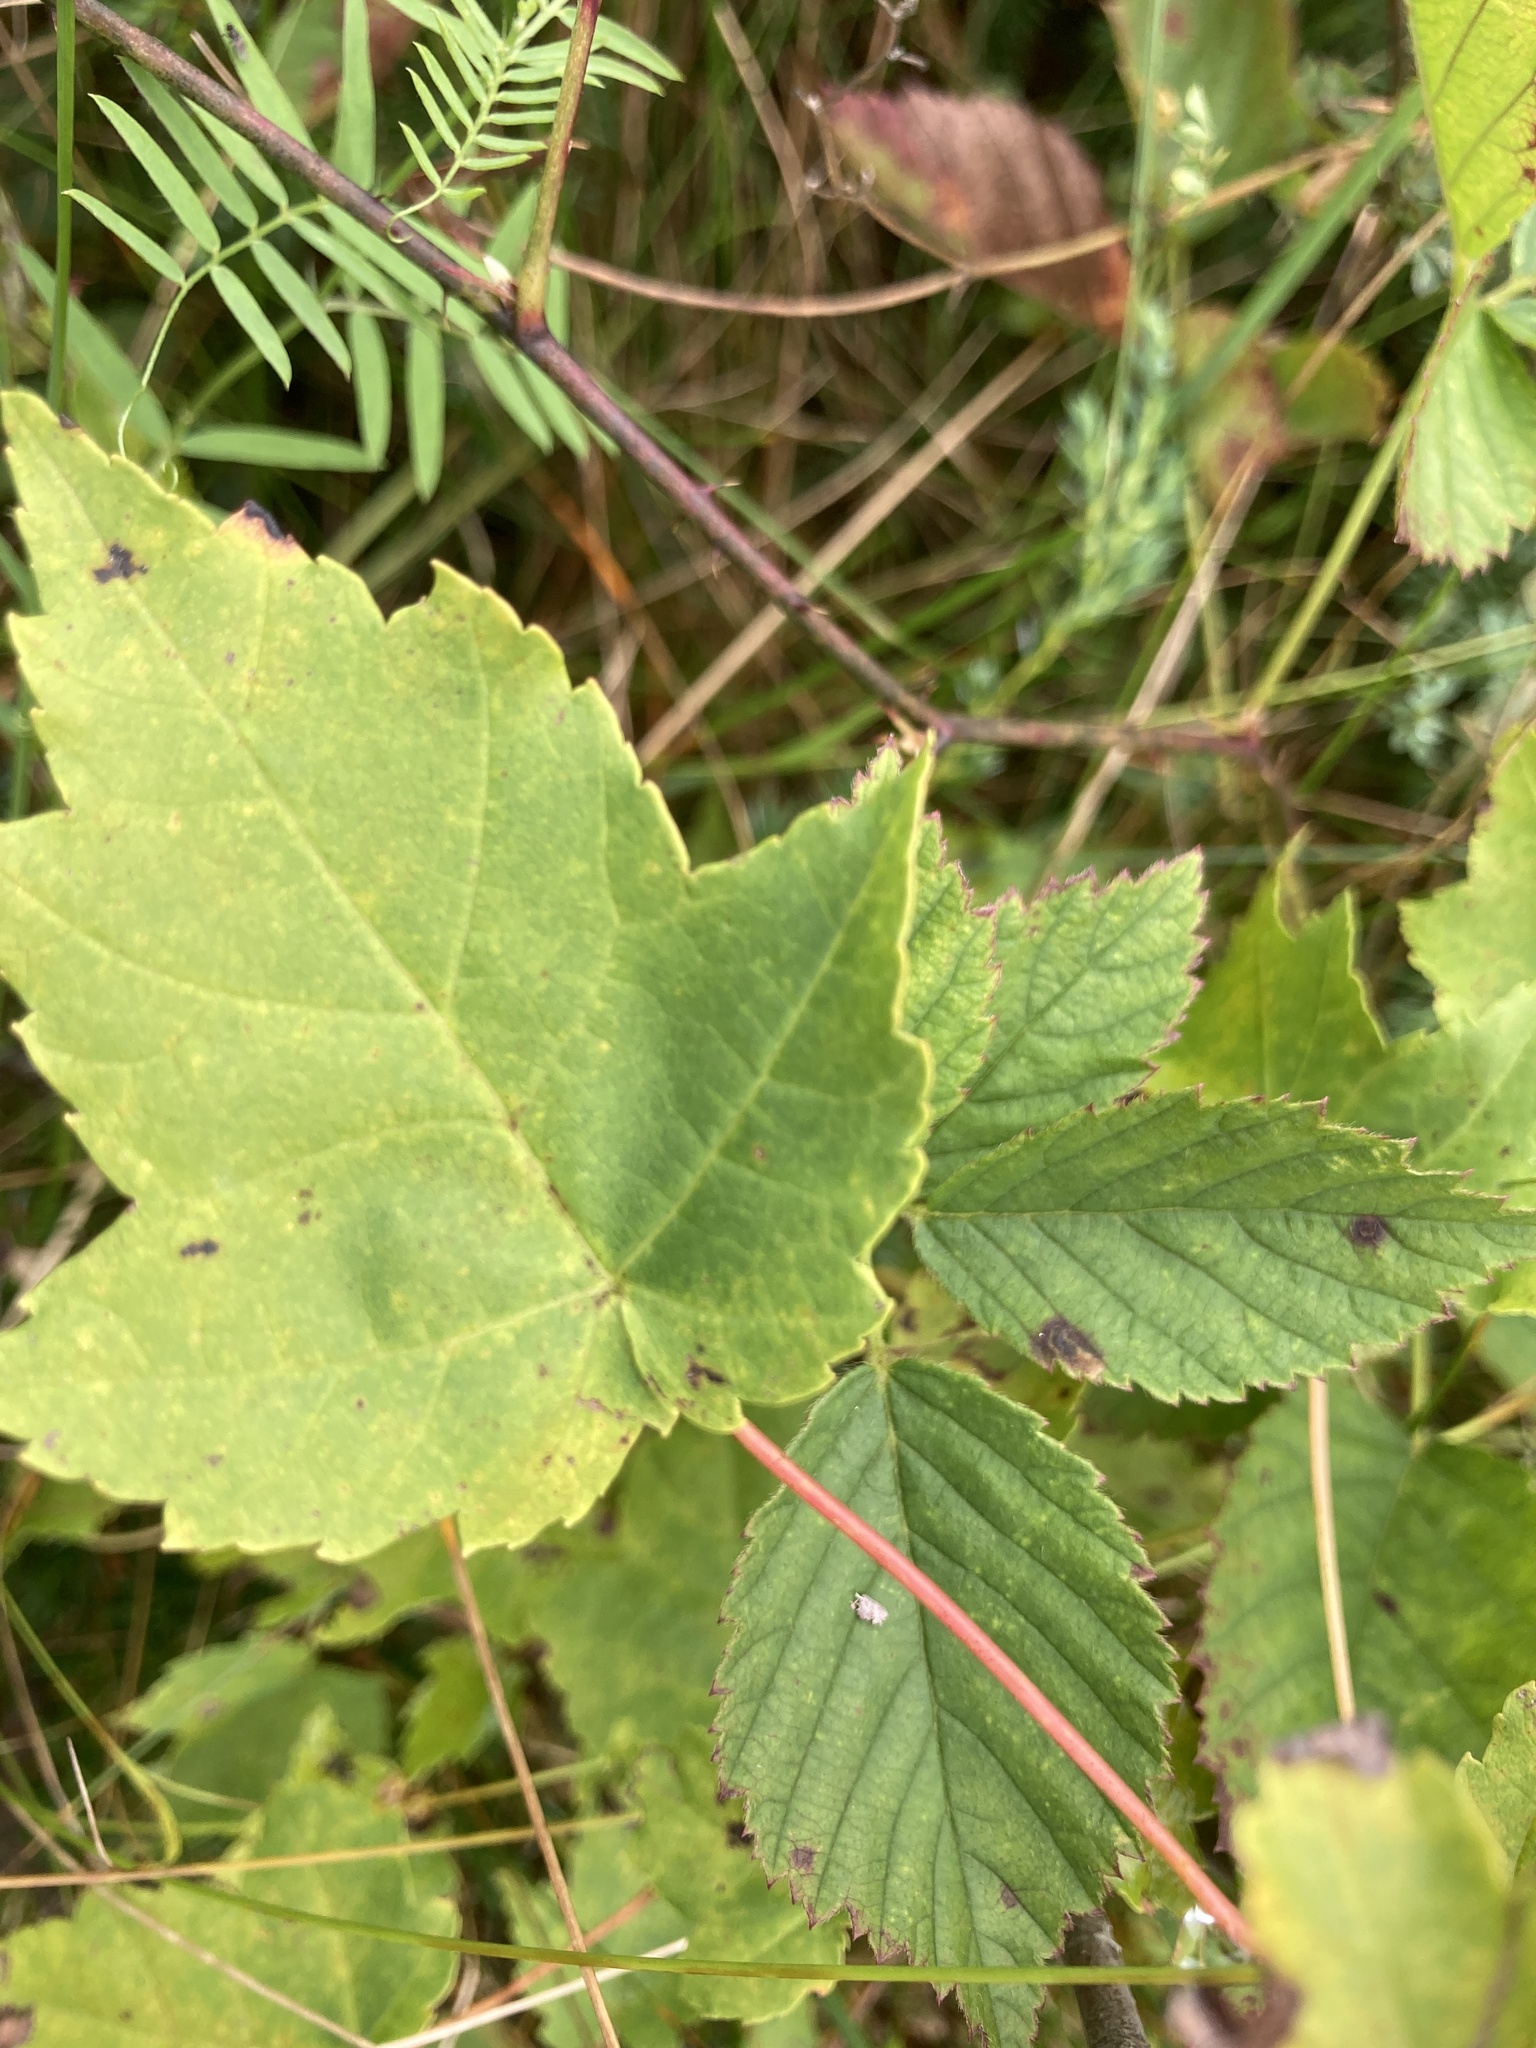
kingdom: Plantae
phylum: Tracheophyta
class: Magnoliopsida
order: Sapindales
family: Sapindaceae
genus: Acer
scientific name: Acer rubrum
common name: Red maple
